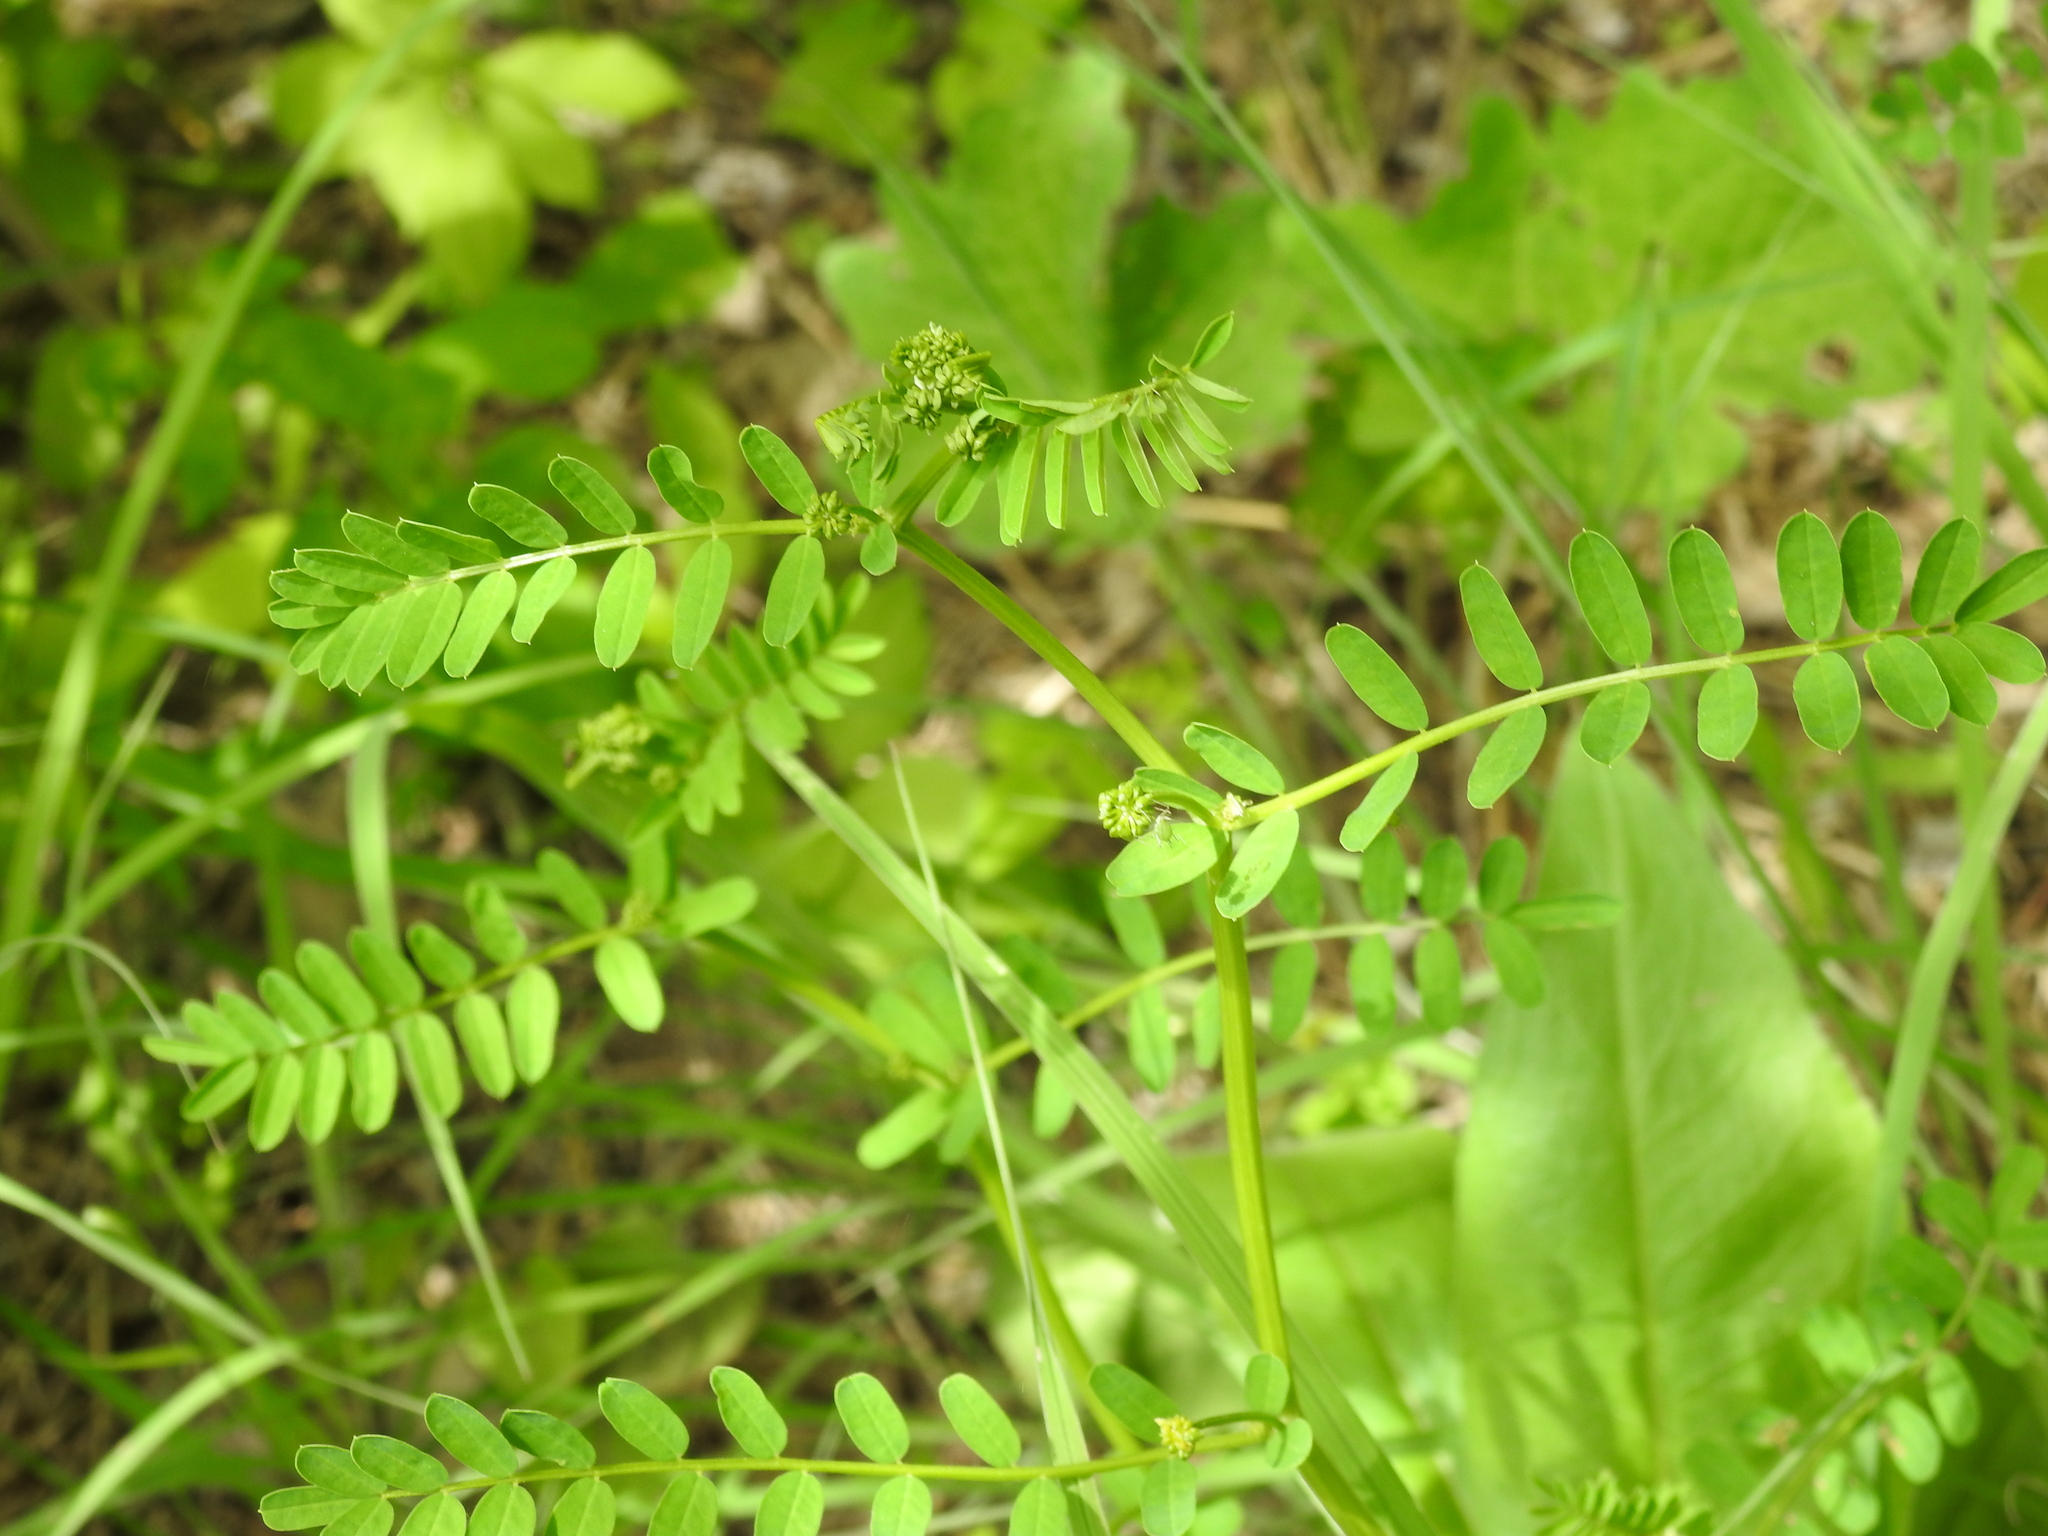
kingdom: Plantae
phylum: Tracheophyta
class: Magnoliopsida
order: Fabales
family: Fabaceae
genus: Coronilla
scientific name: Coronilla varia
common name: Crownvetch
